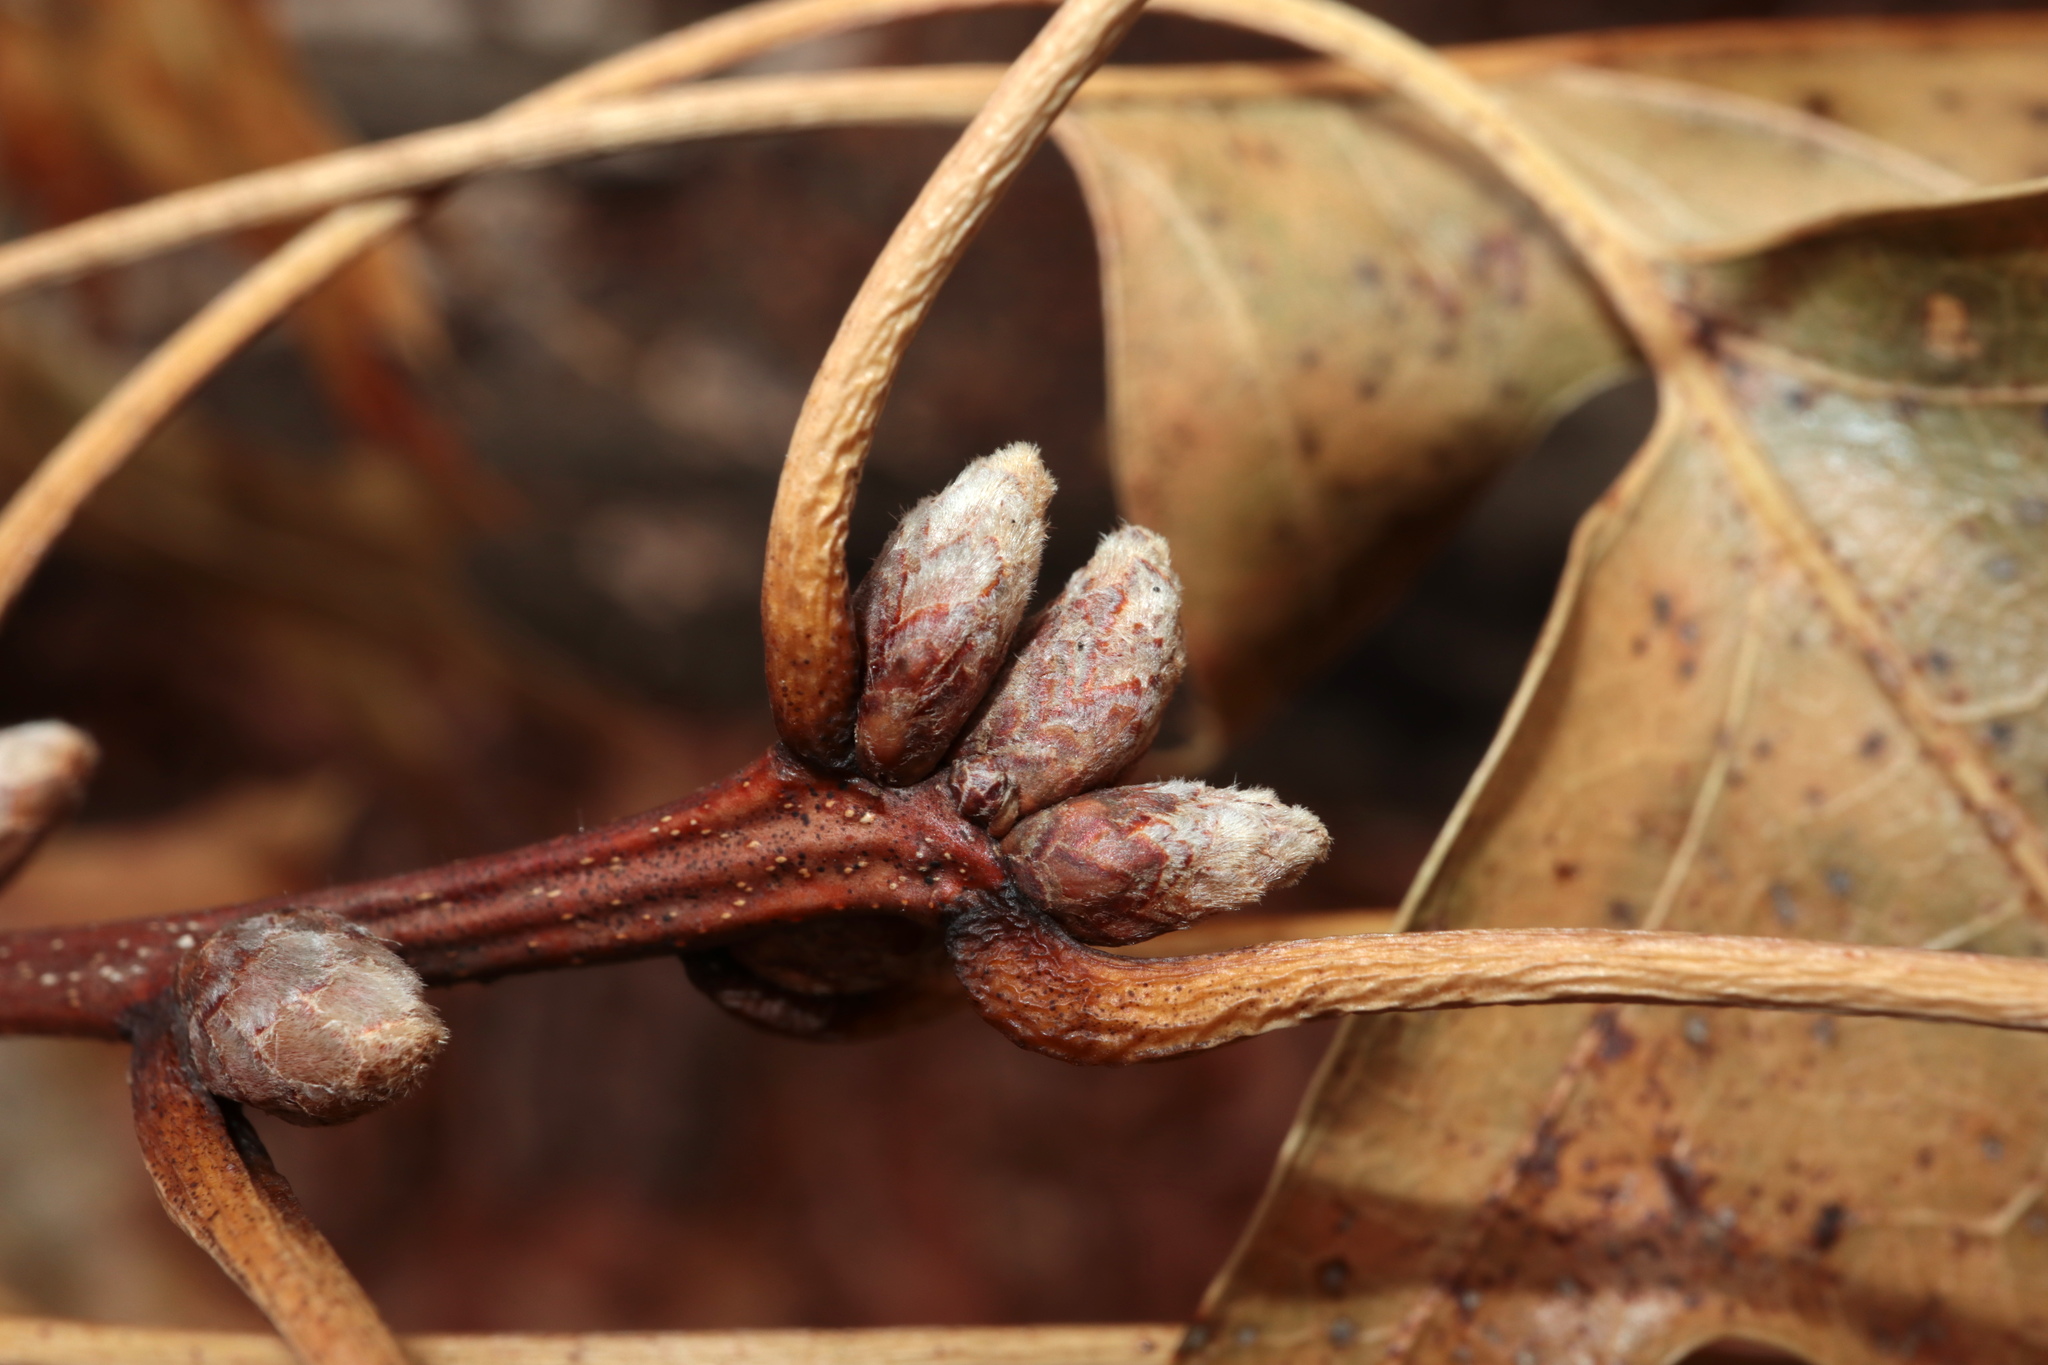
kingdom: Plantae
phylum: Tracheophyta
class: Magnoliopsida
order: Fagales
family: Fagaceae
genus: Quercus
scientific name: Quercus coccinea
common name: Scarlet oak
